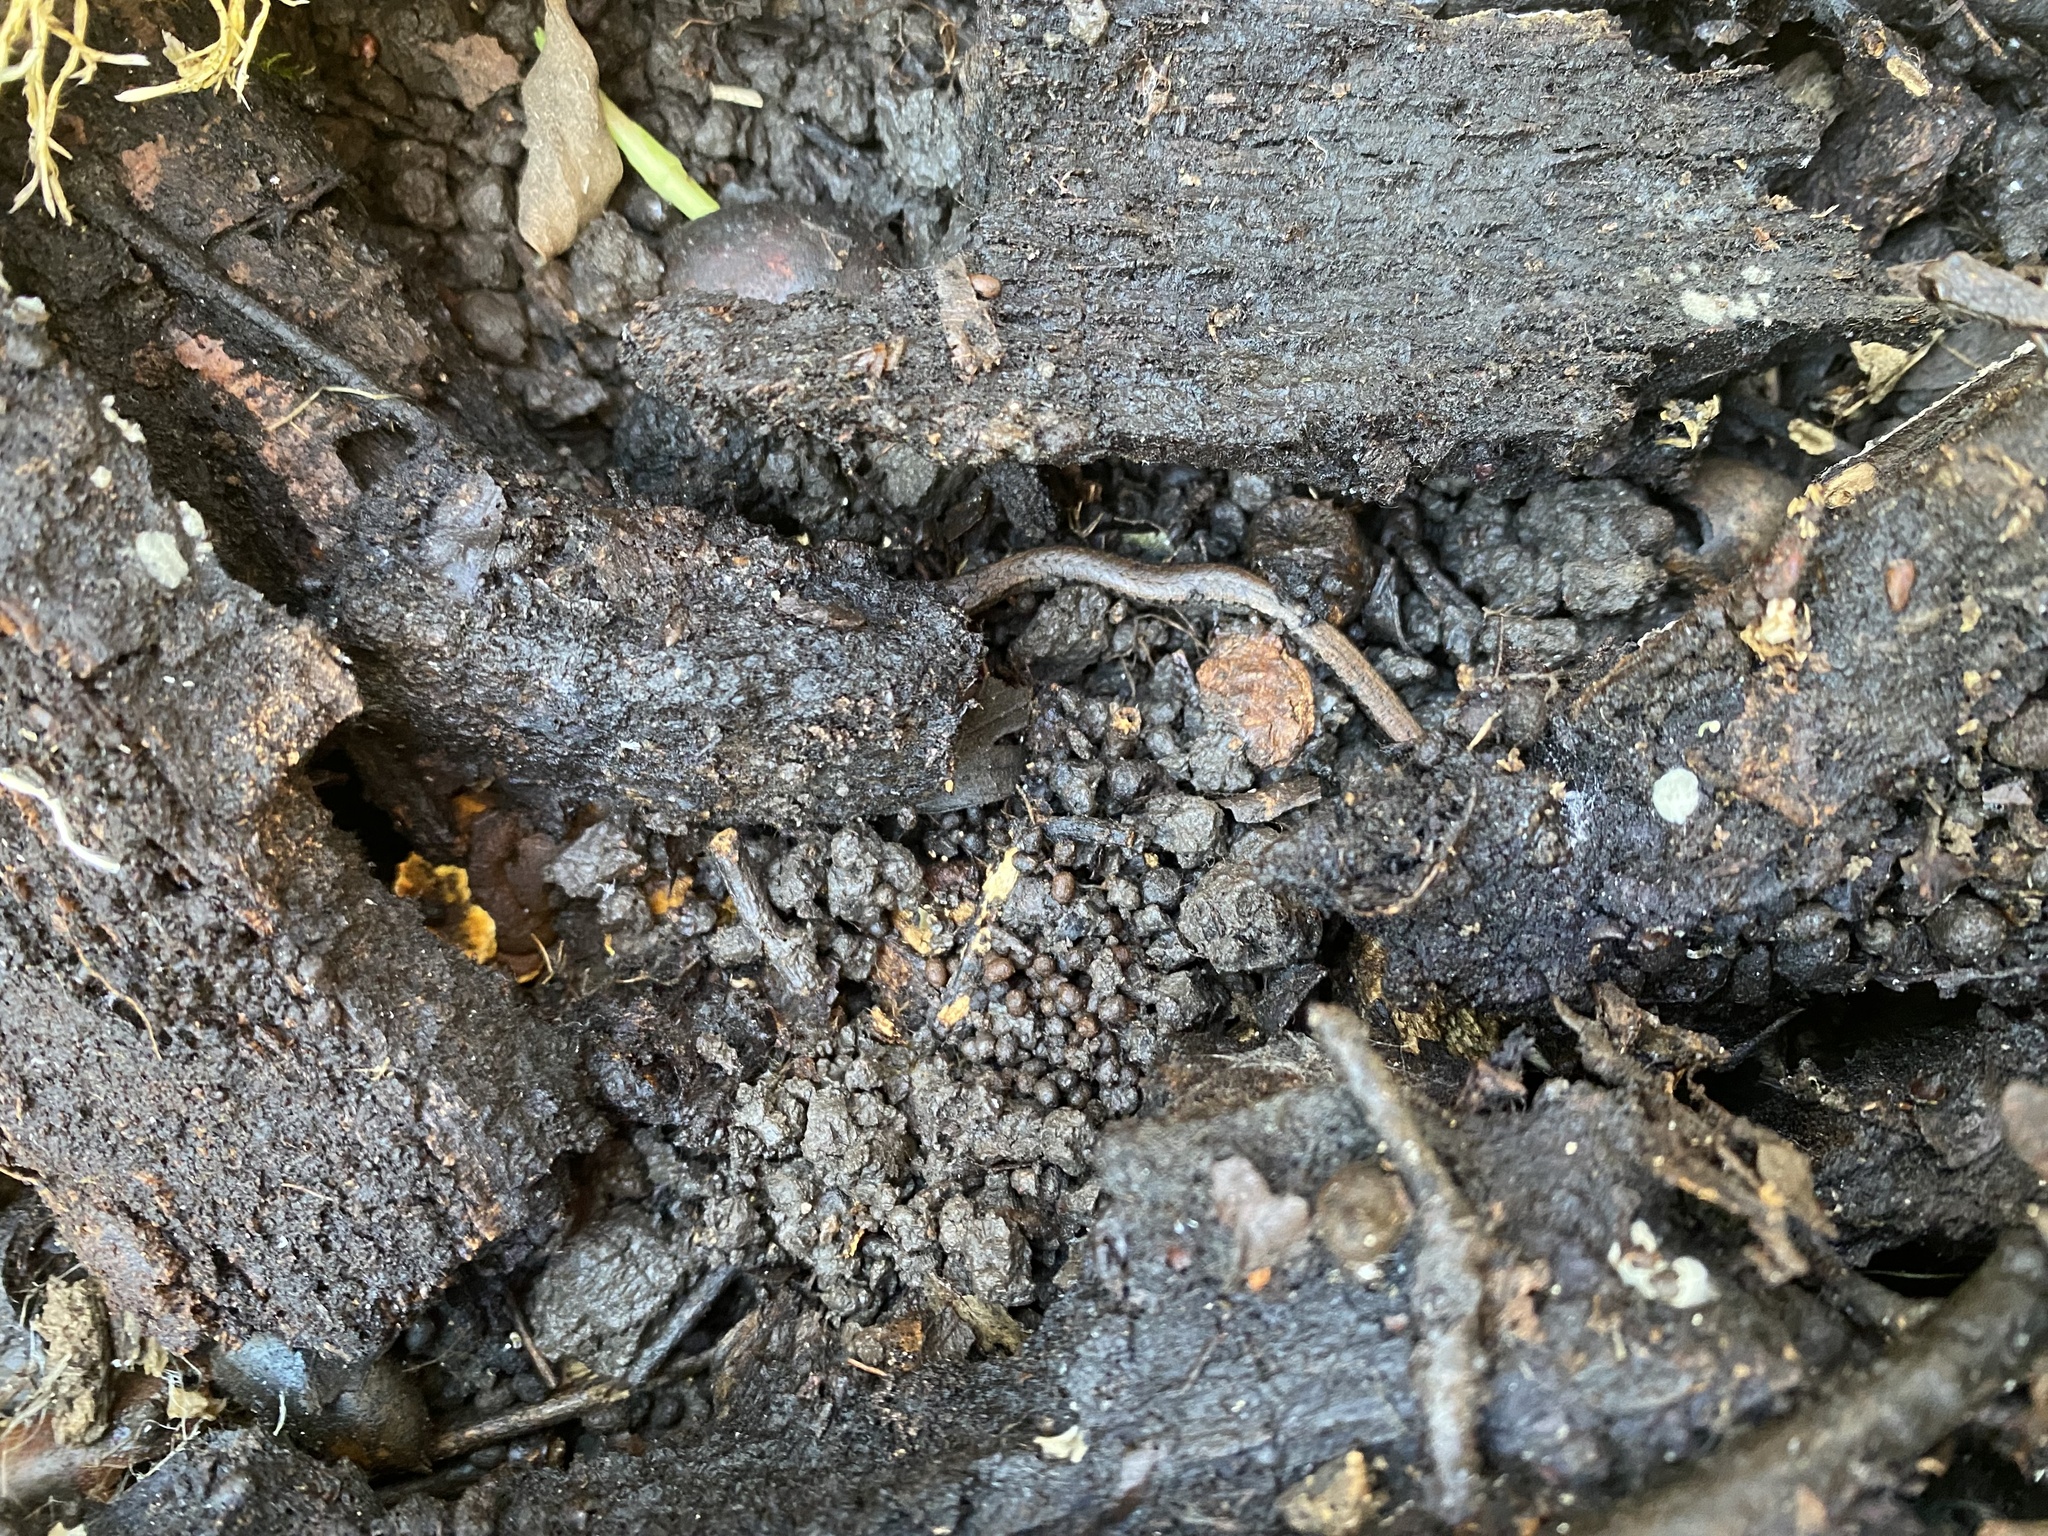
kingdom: Animalia
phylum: Chordata
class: Amphibia
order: Caudata
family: Plethodontidae
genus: Batrachoseps
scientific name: Batrachoseps attenuatus
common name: California slender salamander
